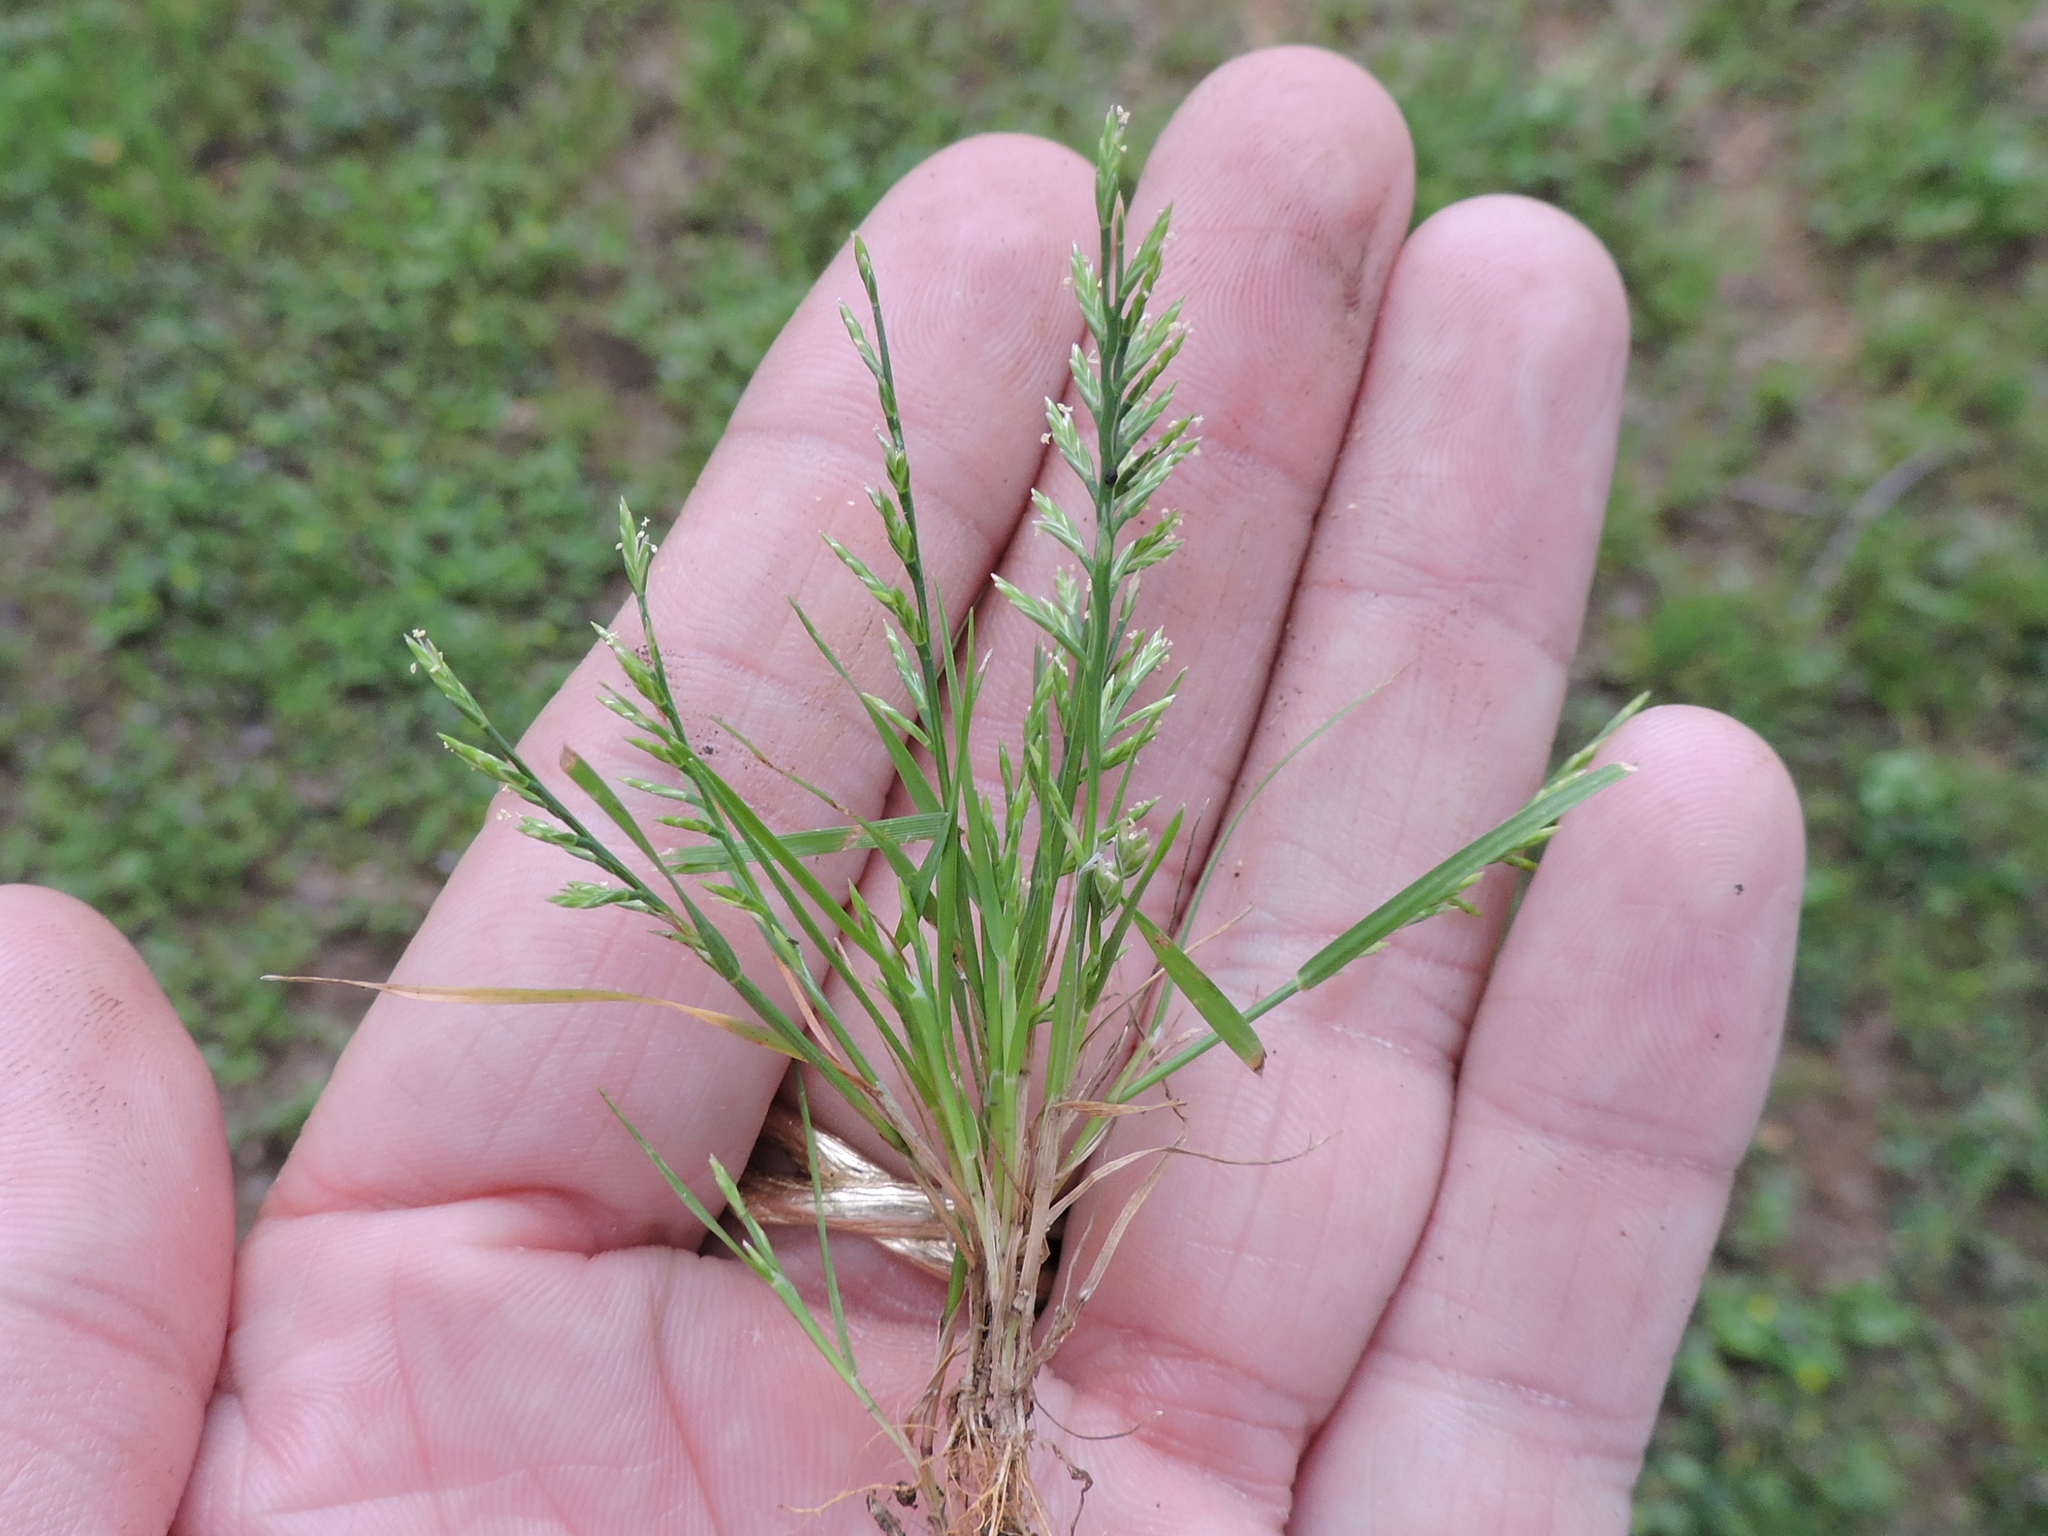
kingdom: Plantae
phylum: Tracheophyta
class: Liliopsida
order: Poales
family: Poaceae
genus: Catapodium
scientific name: Catapodium rigidum
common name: Fern-grass
